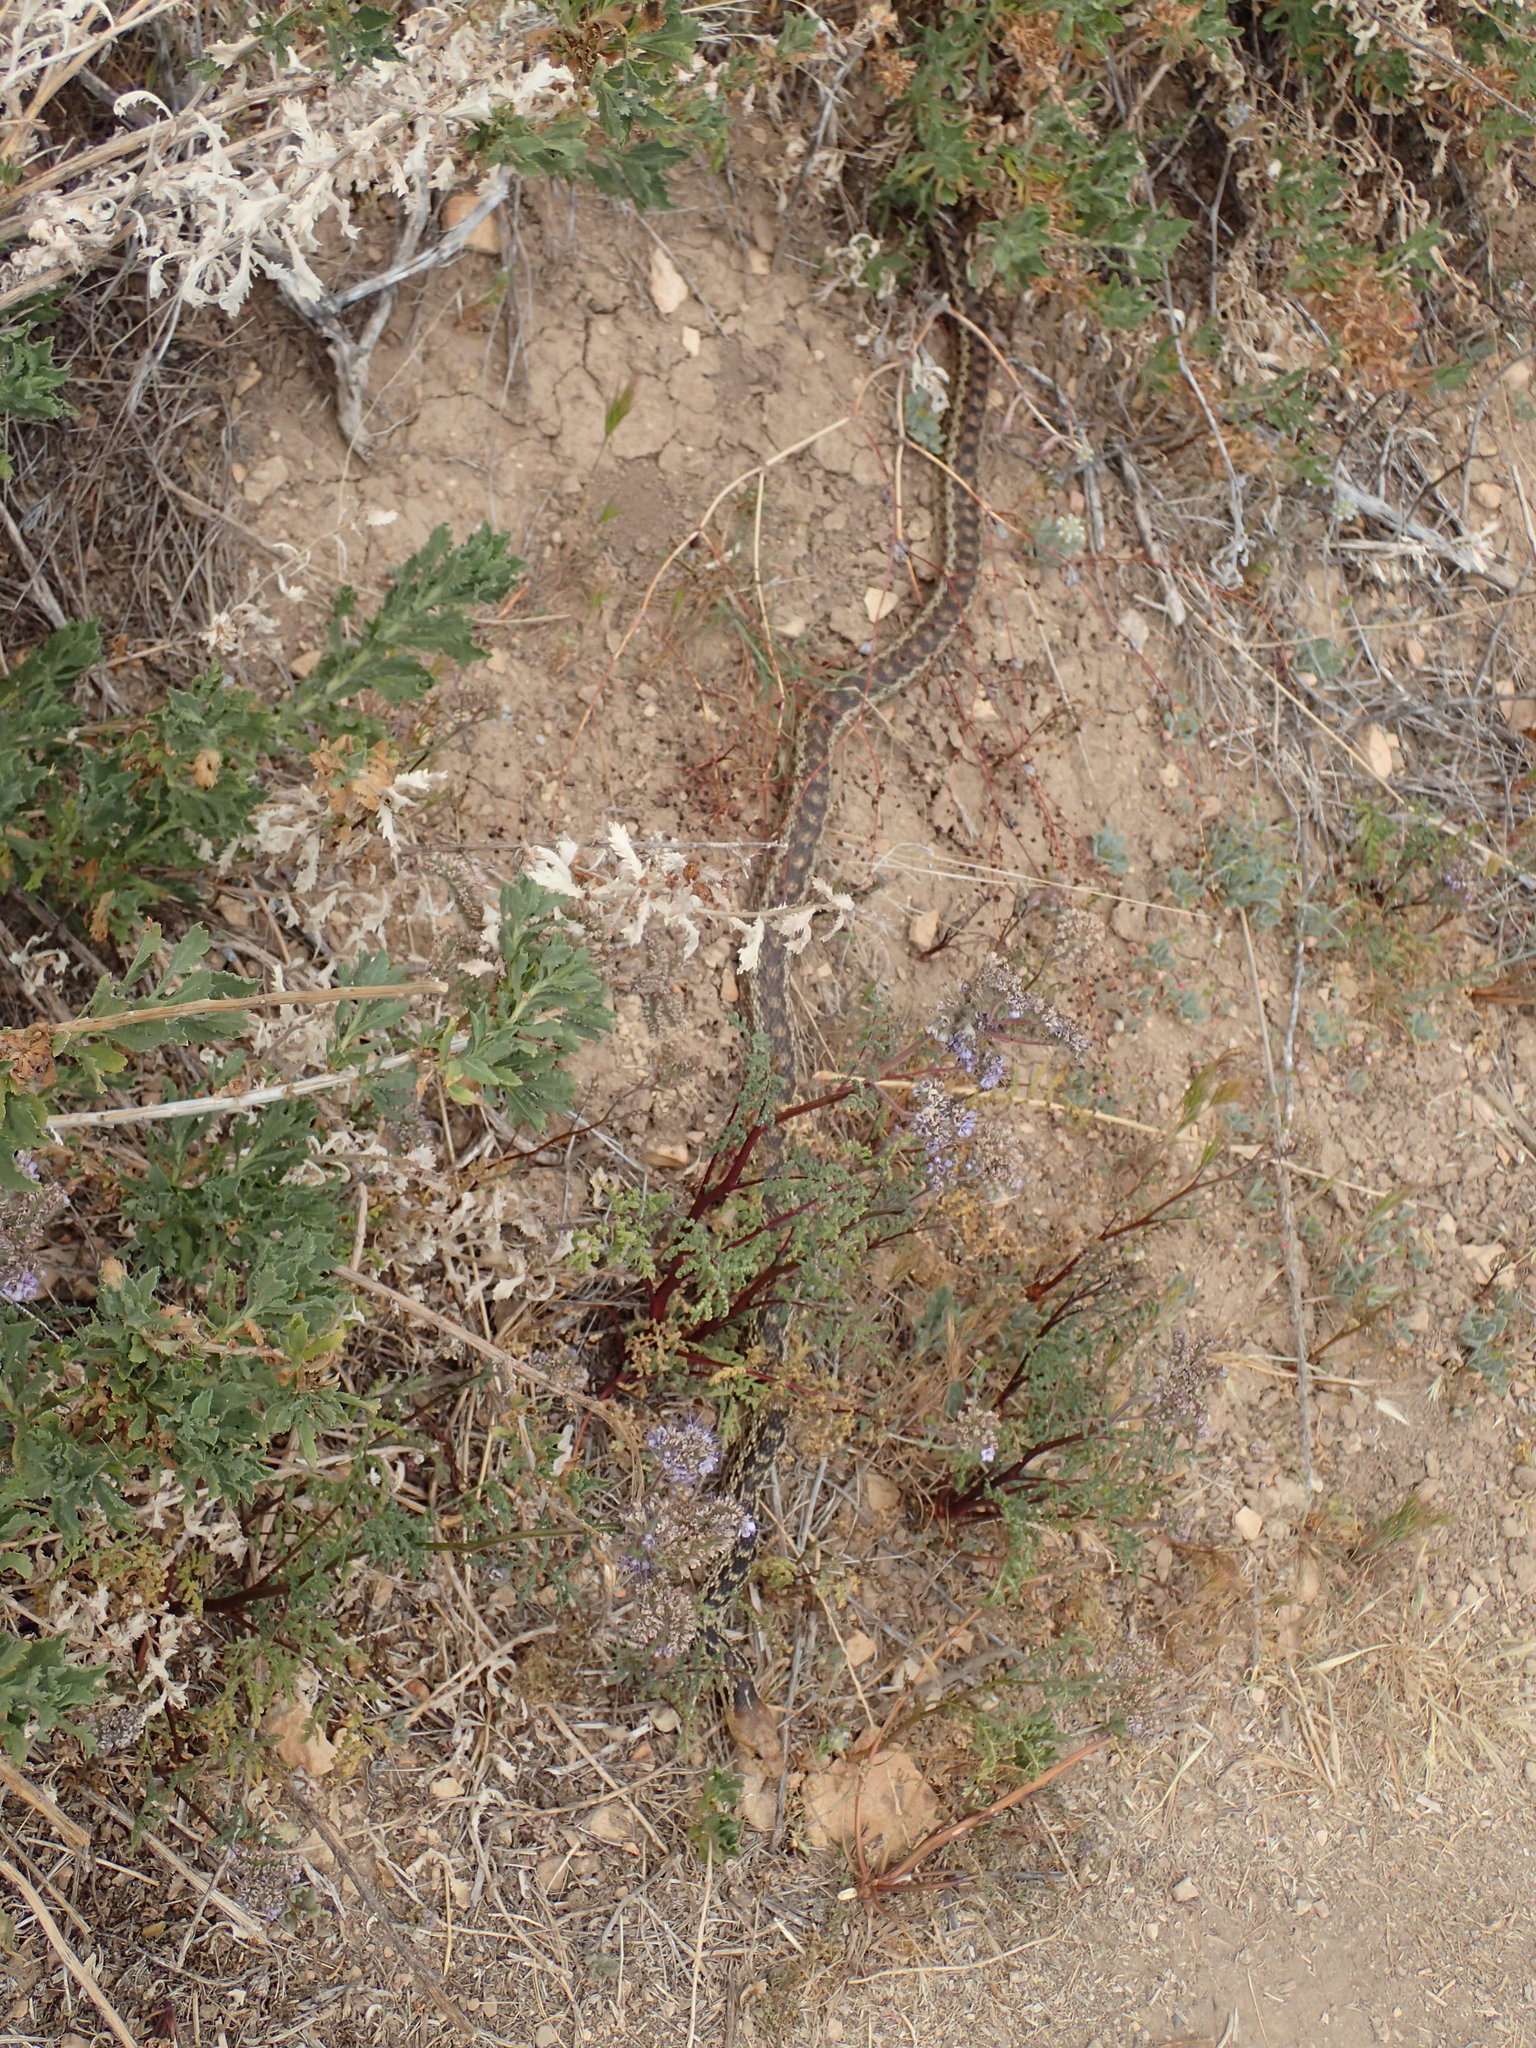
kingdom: Animalia
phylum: Chordata
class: Squamata
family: Colubridae
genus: Pituophis
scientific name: Pituophis catenifer
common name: Gopher snake
